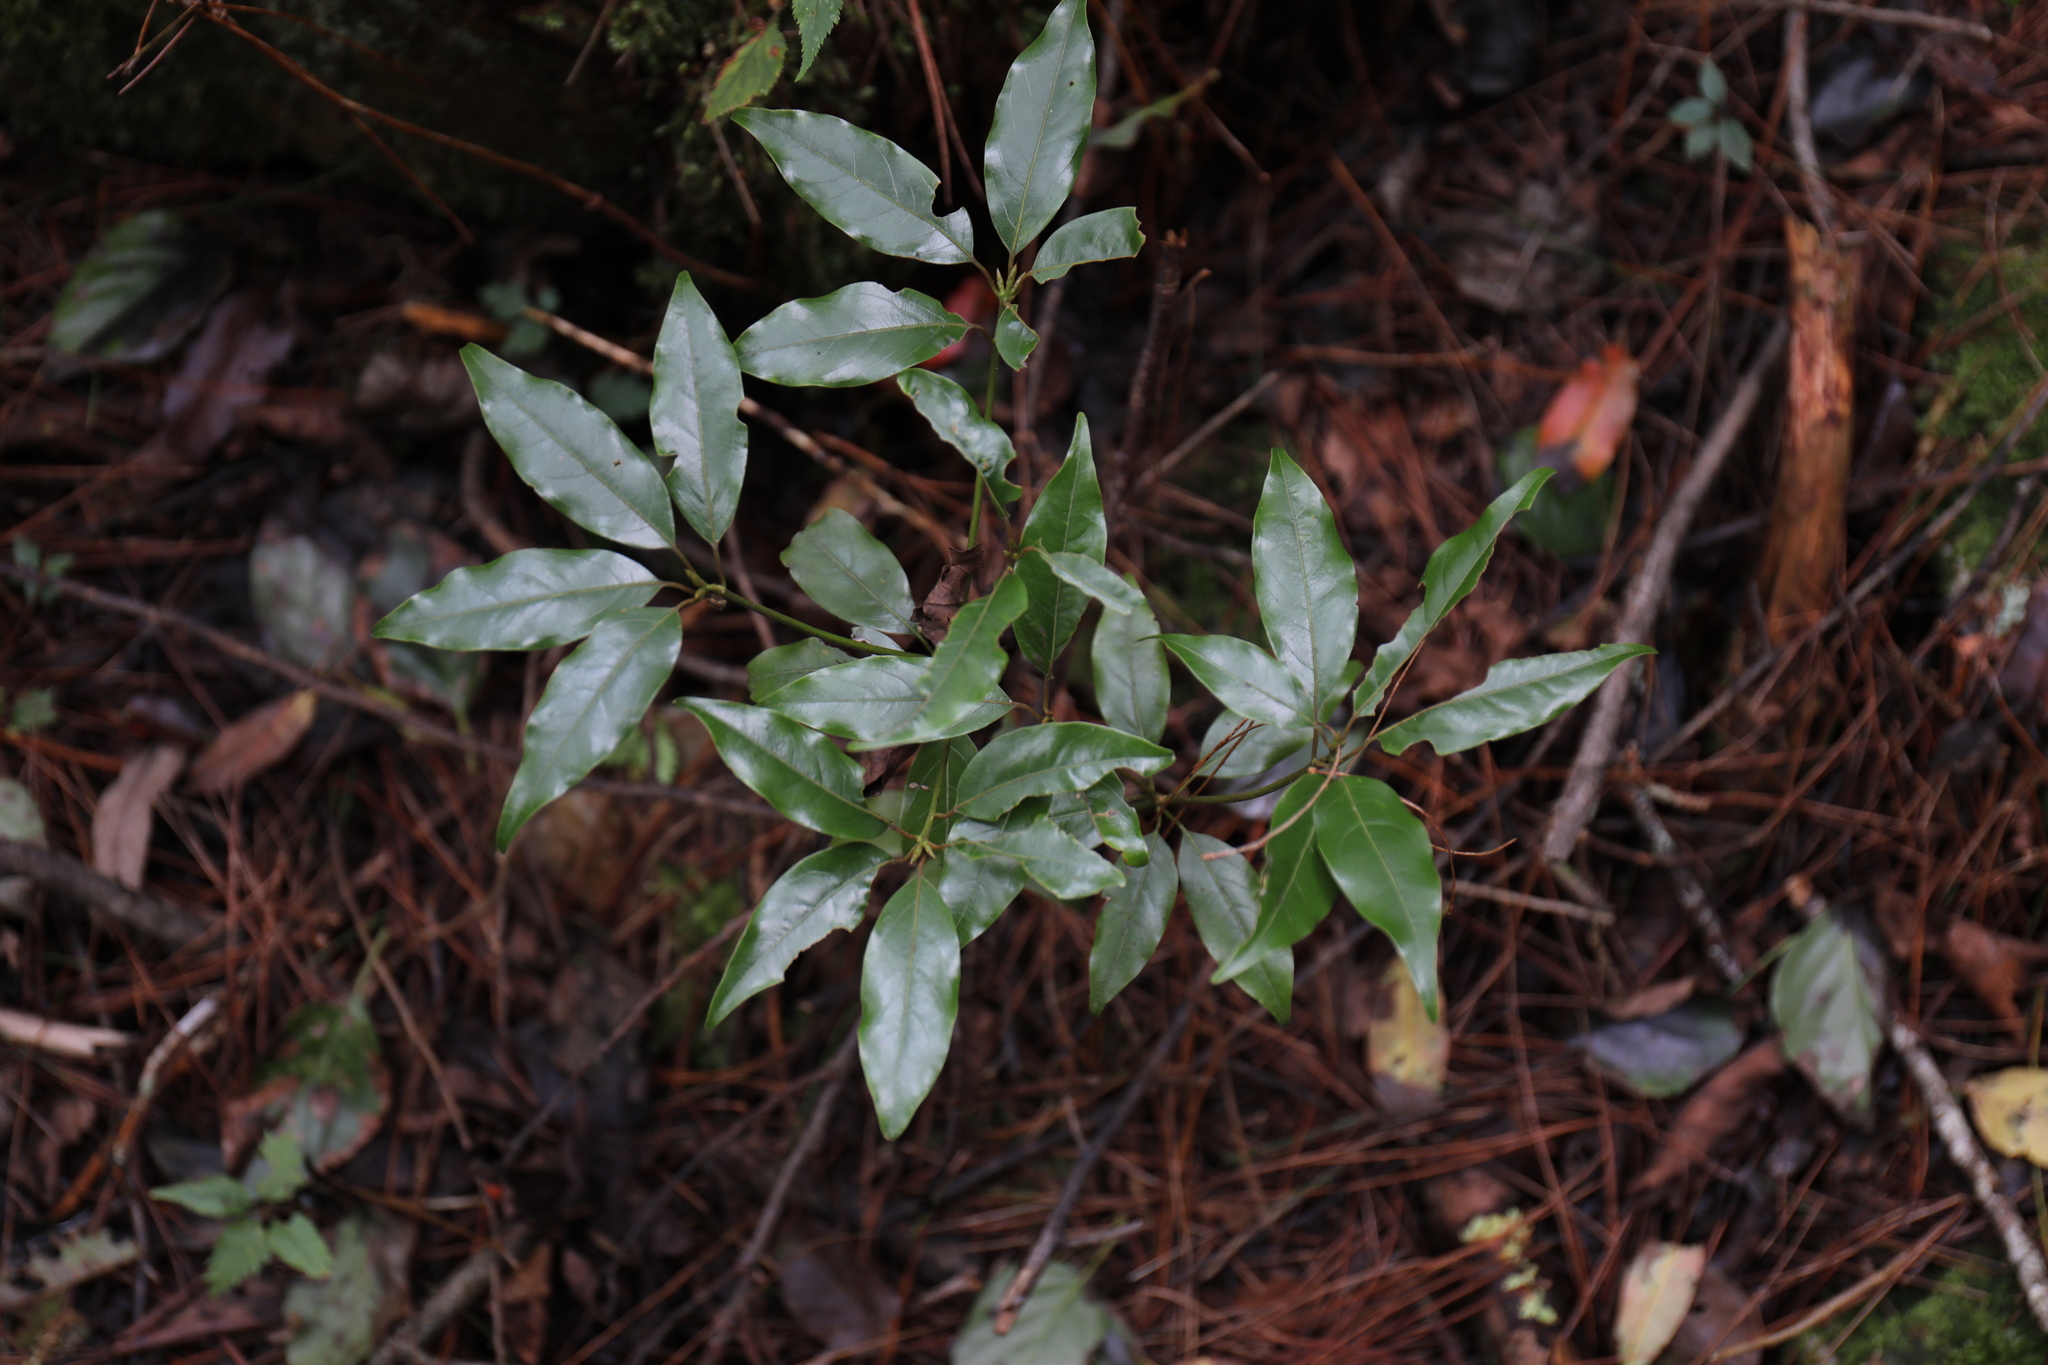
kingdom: Plantae
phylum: Tracheophyta
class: Magnoliopsida
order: Laurales
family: Lauraceae
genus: Neolitsea
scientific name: Neolitsea acuminatissima
